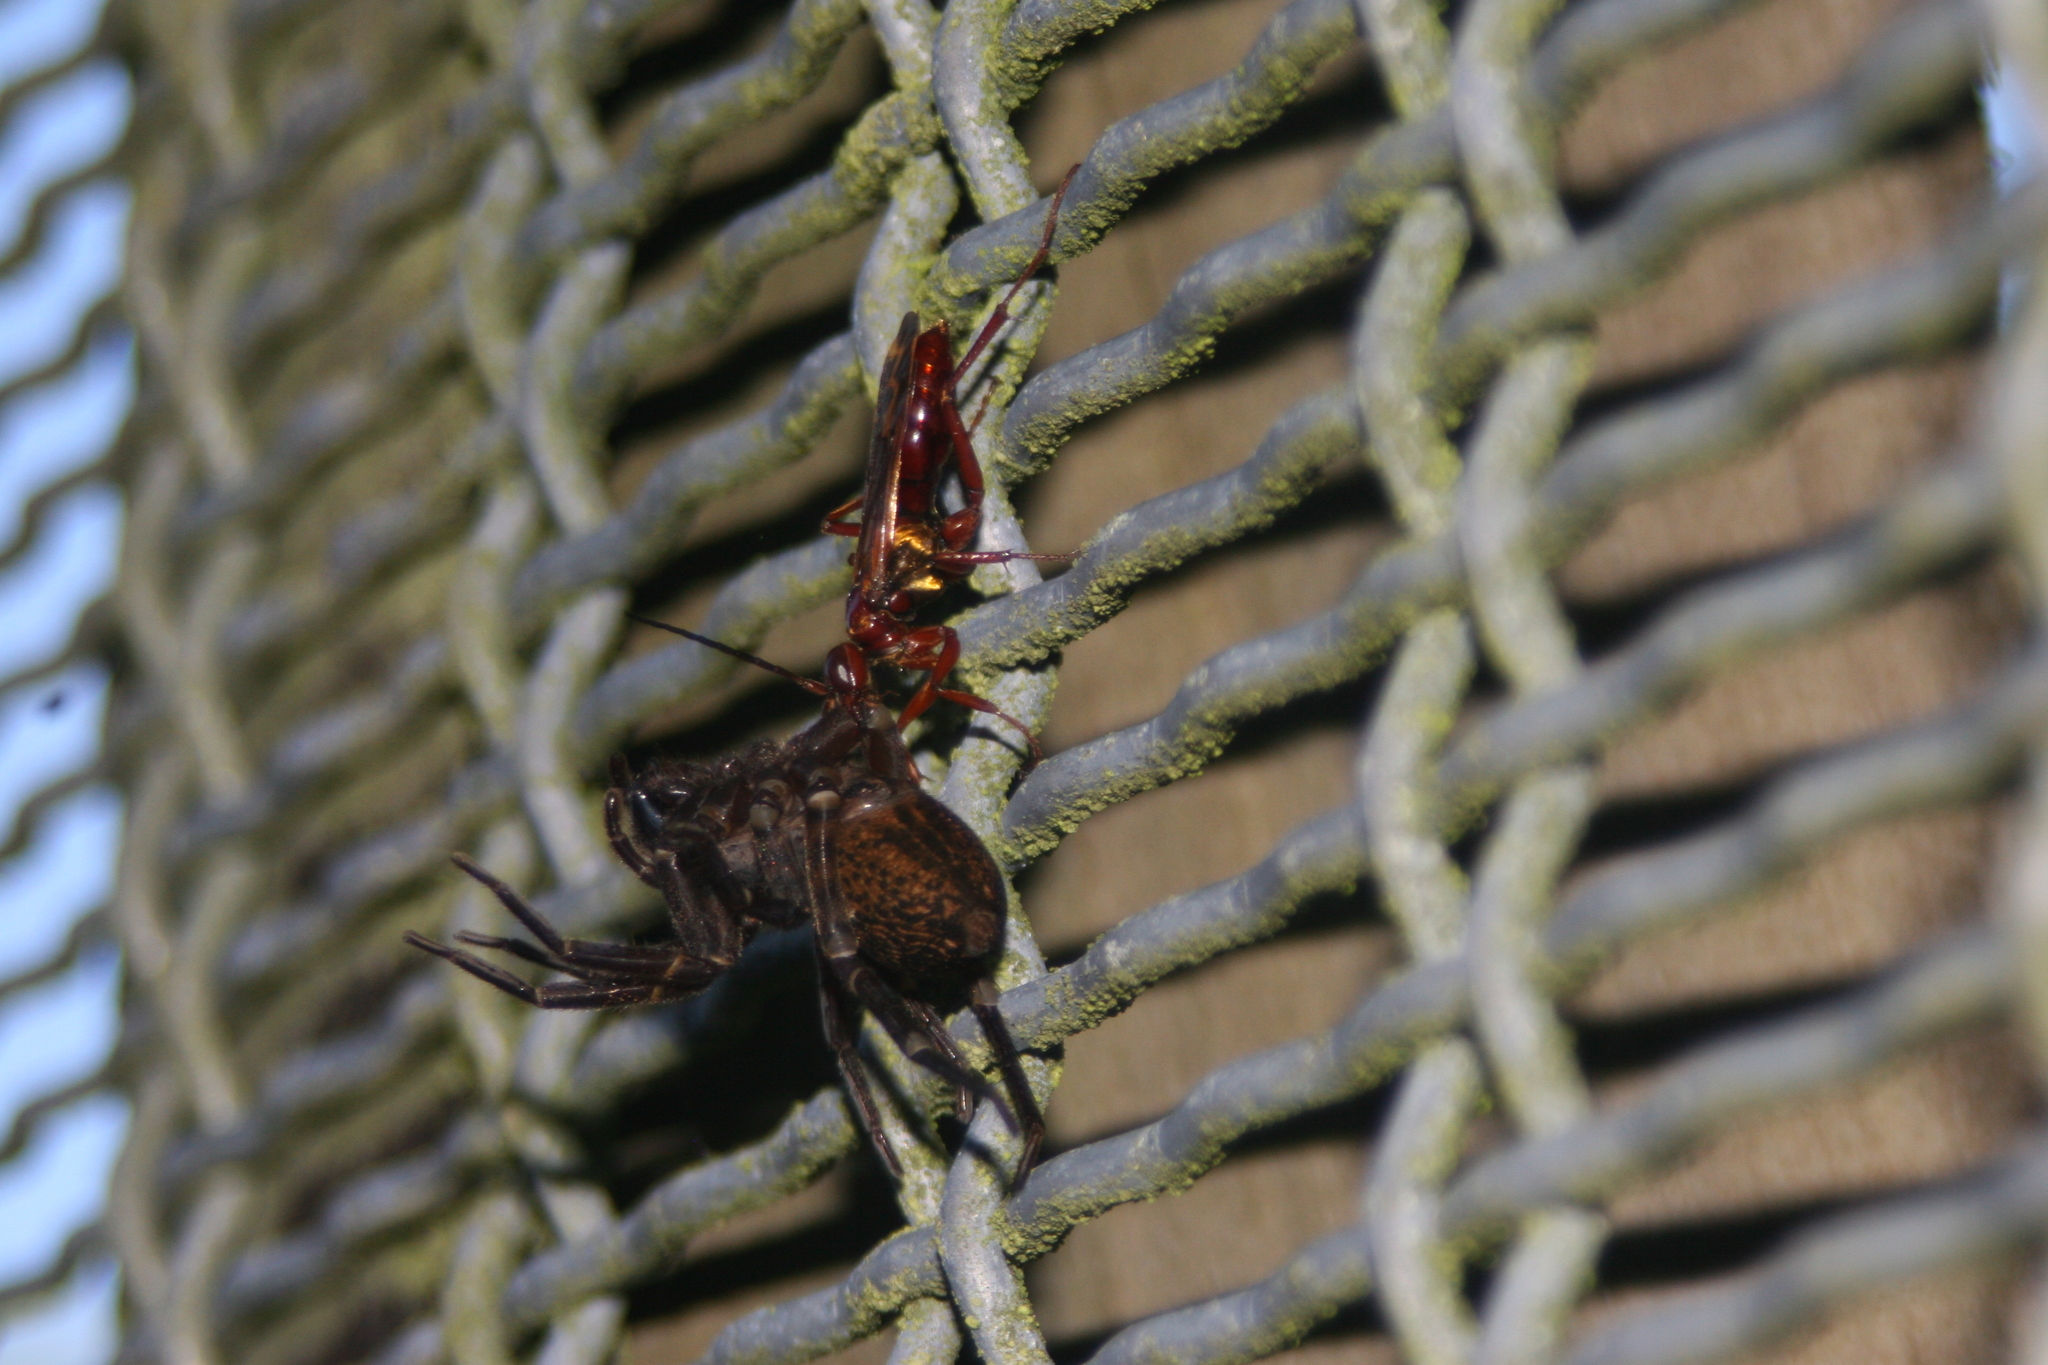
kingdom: Animalia
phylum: Arthropoda
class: Insecta
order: Hymenoptera
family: Pompilidae
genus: Sphictostethus
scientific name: Sphictostethus nitidus
